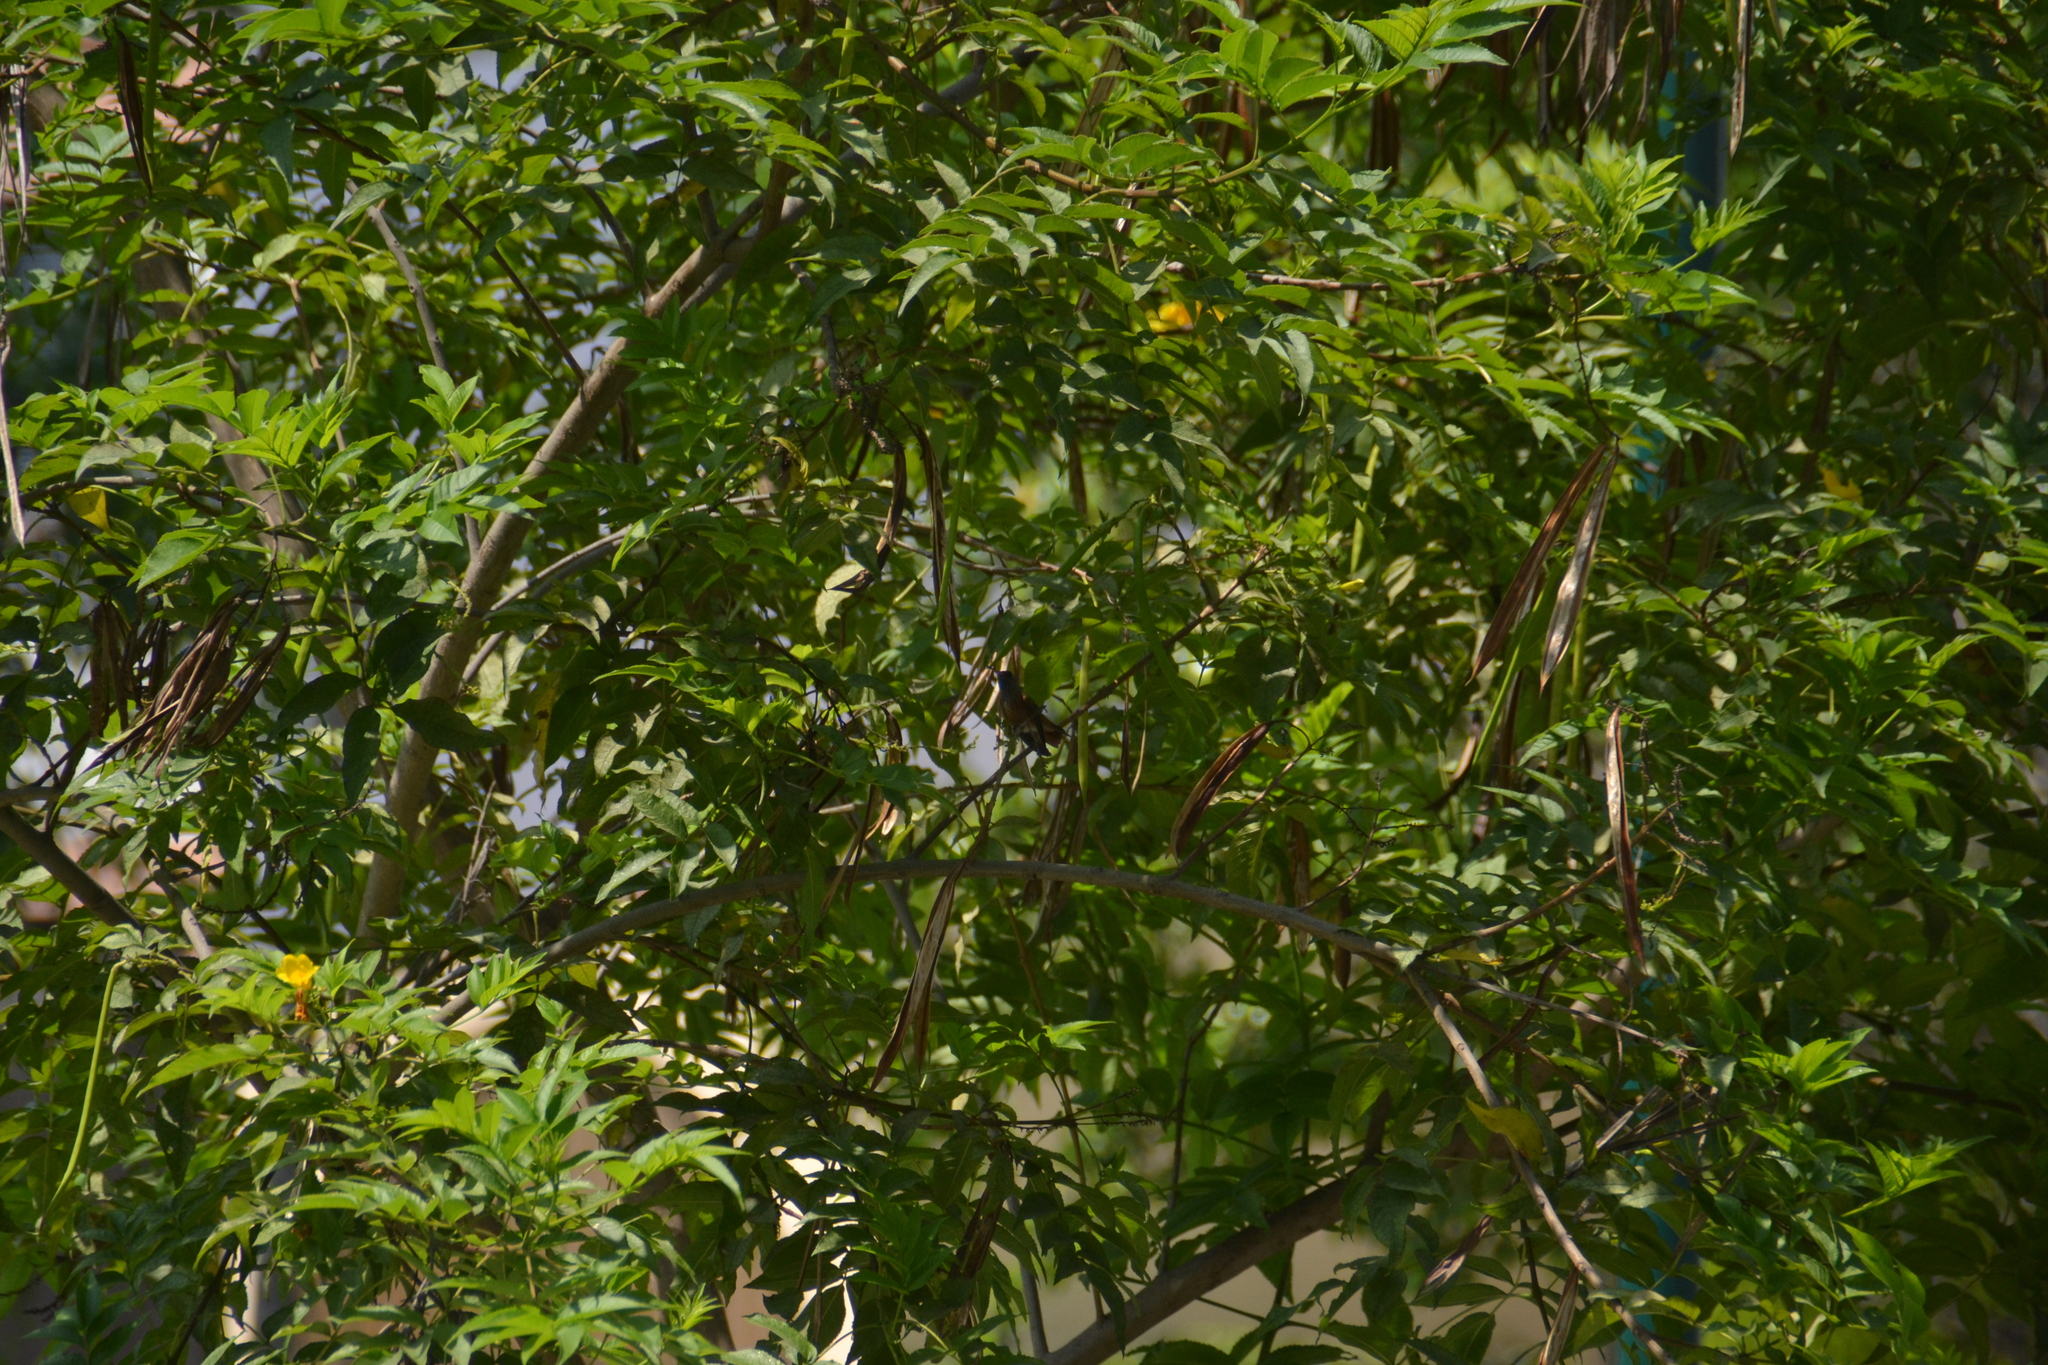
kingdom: Animalia
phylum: Chordata
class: Aves
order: Apodiformes
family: Trochilidae
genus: Amazilis
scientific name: Amazilis amazilia
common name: Amazilia hummingbird
